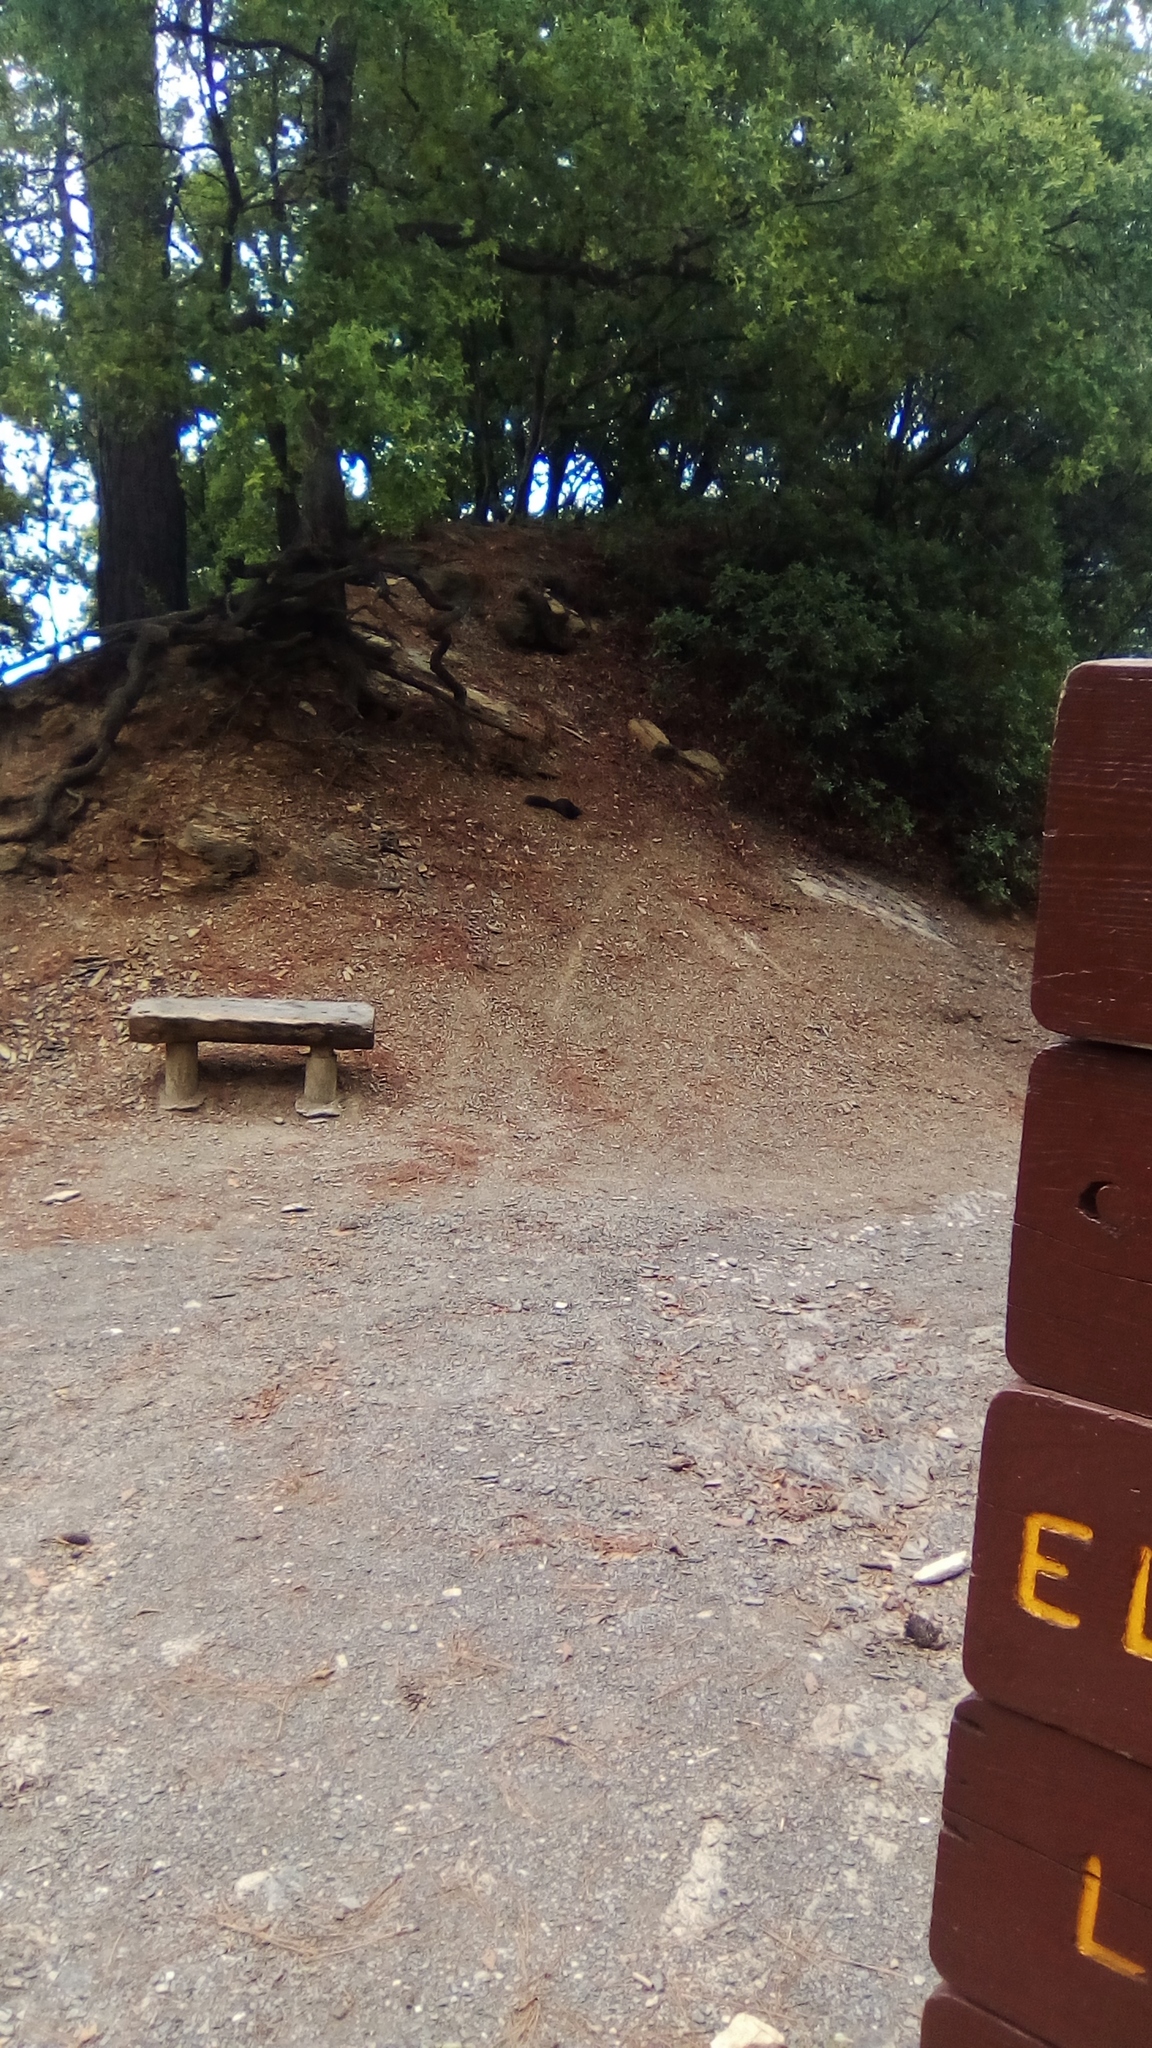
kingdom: Animalia
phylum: Chordata
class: Mammalia
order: Rodentia
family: Sciuridae
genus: Otospermophilus
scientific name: Otospermophilus variegatus
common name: Rock squirrel
